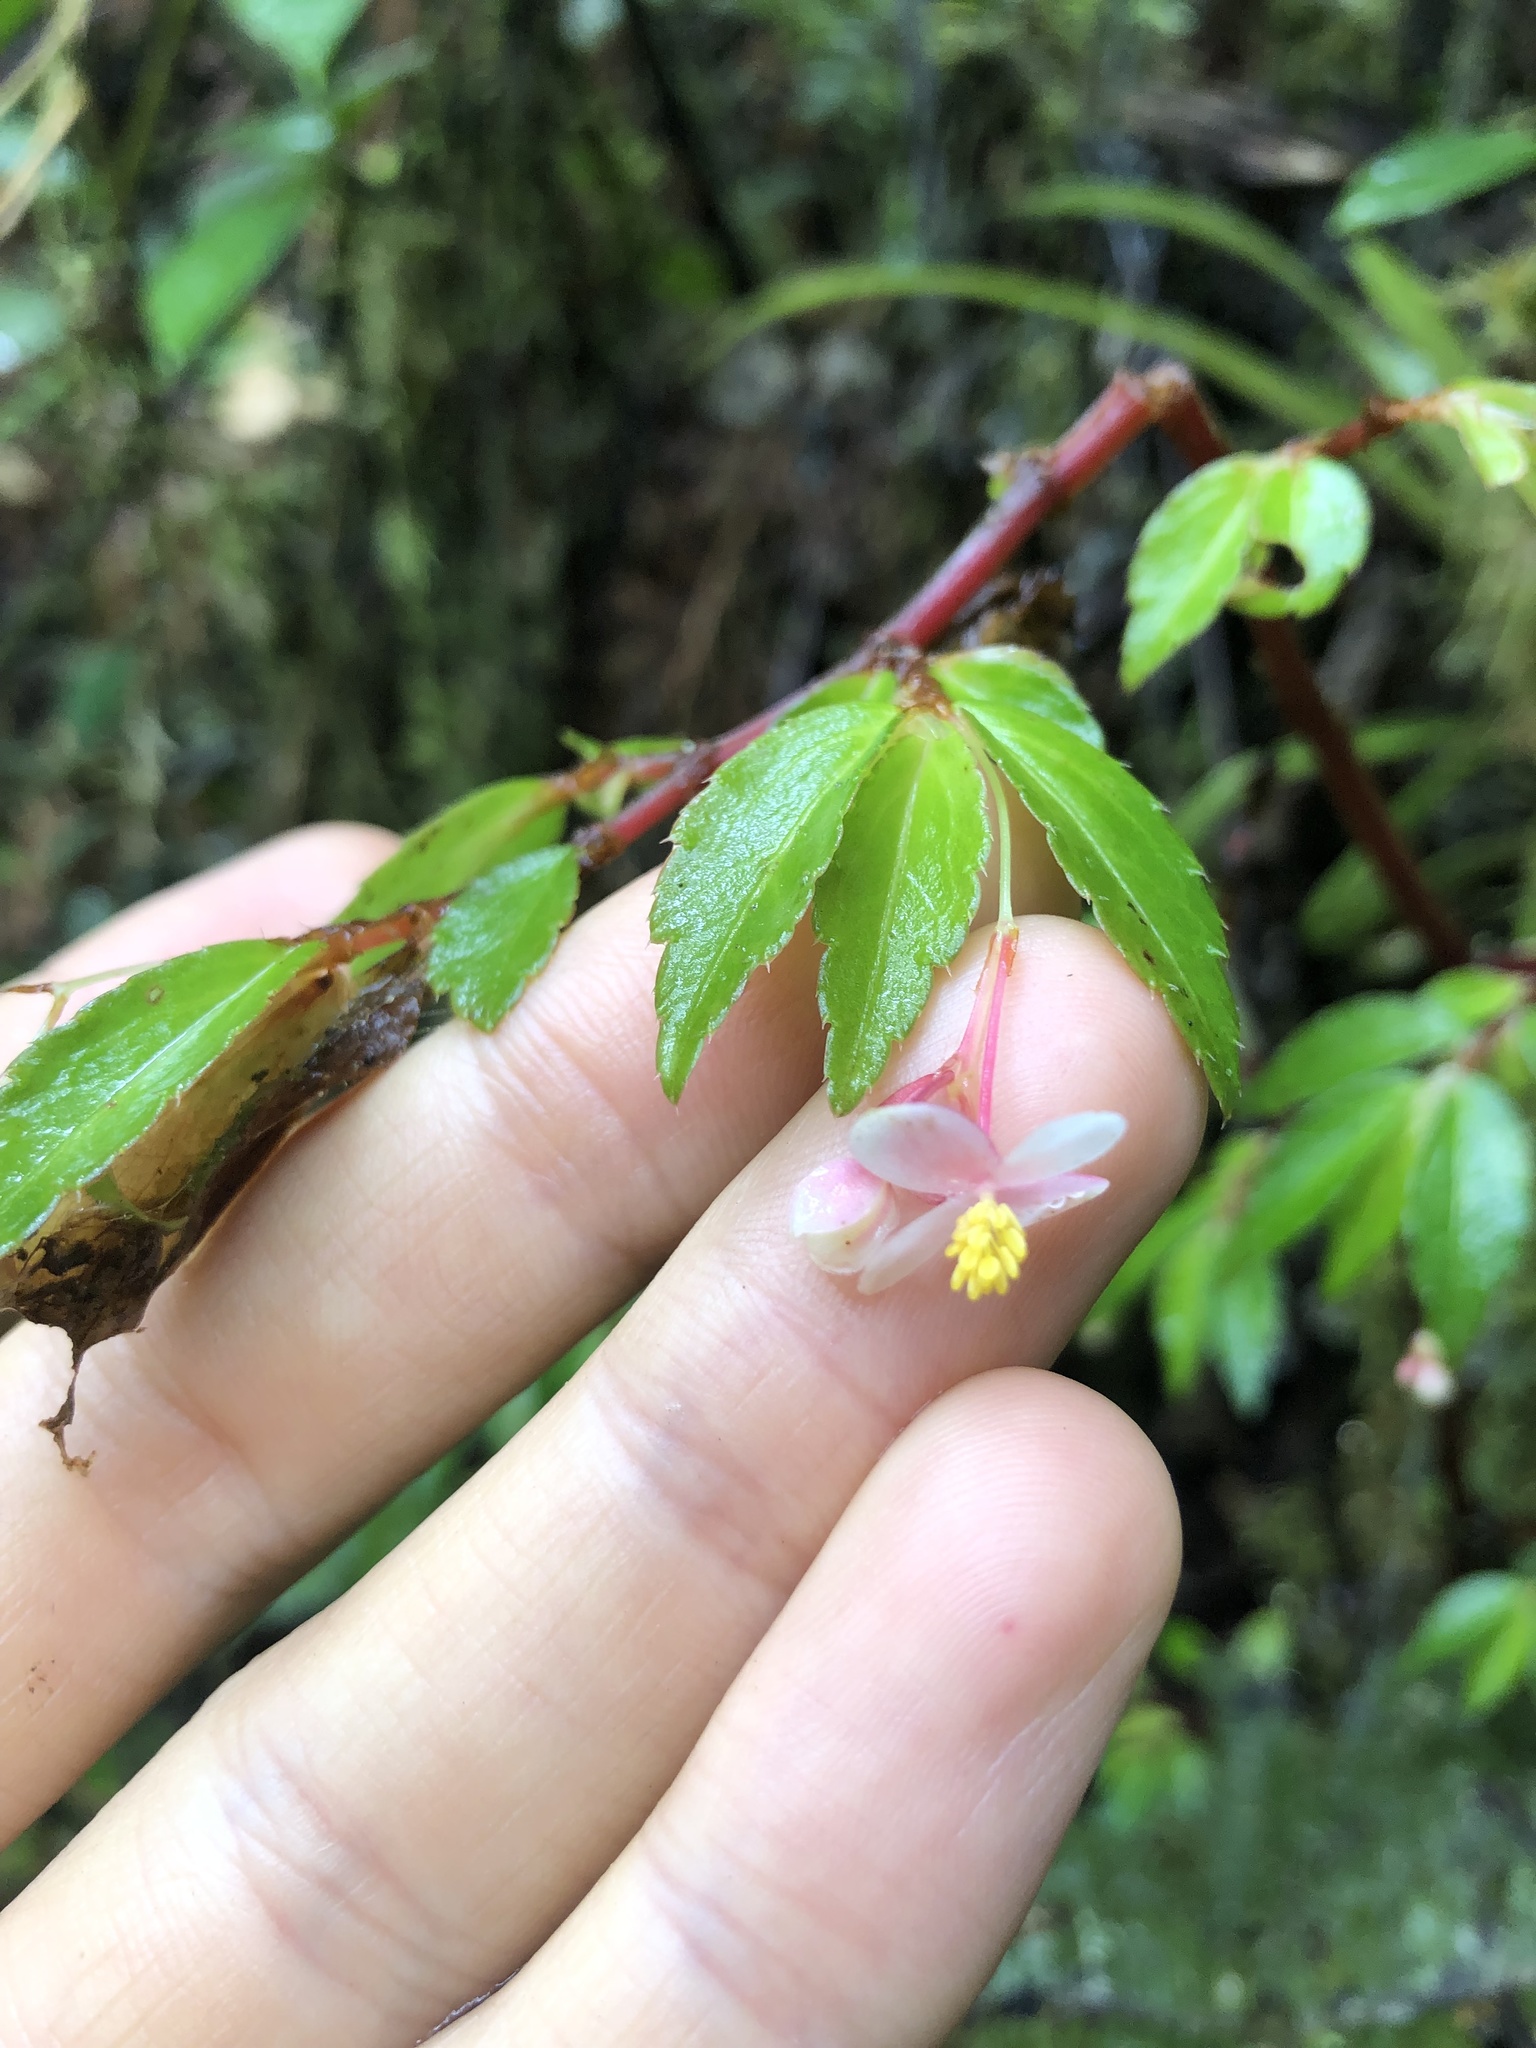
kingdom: Plantae
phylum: Tracheophyta
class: Magnoliopsida
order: Cucurbitales
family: Begoniaceae
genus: Begonia
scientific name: Begonia foliosa
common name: Fern begonia
